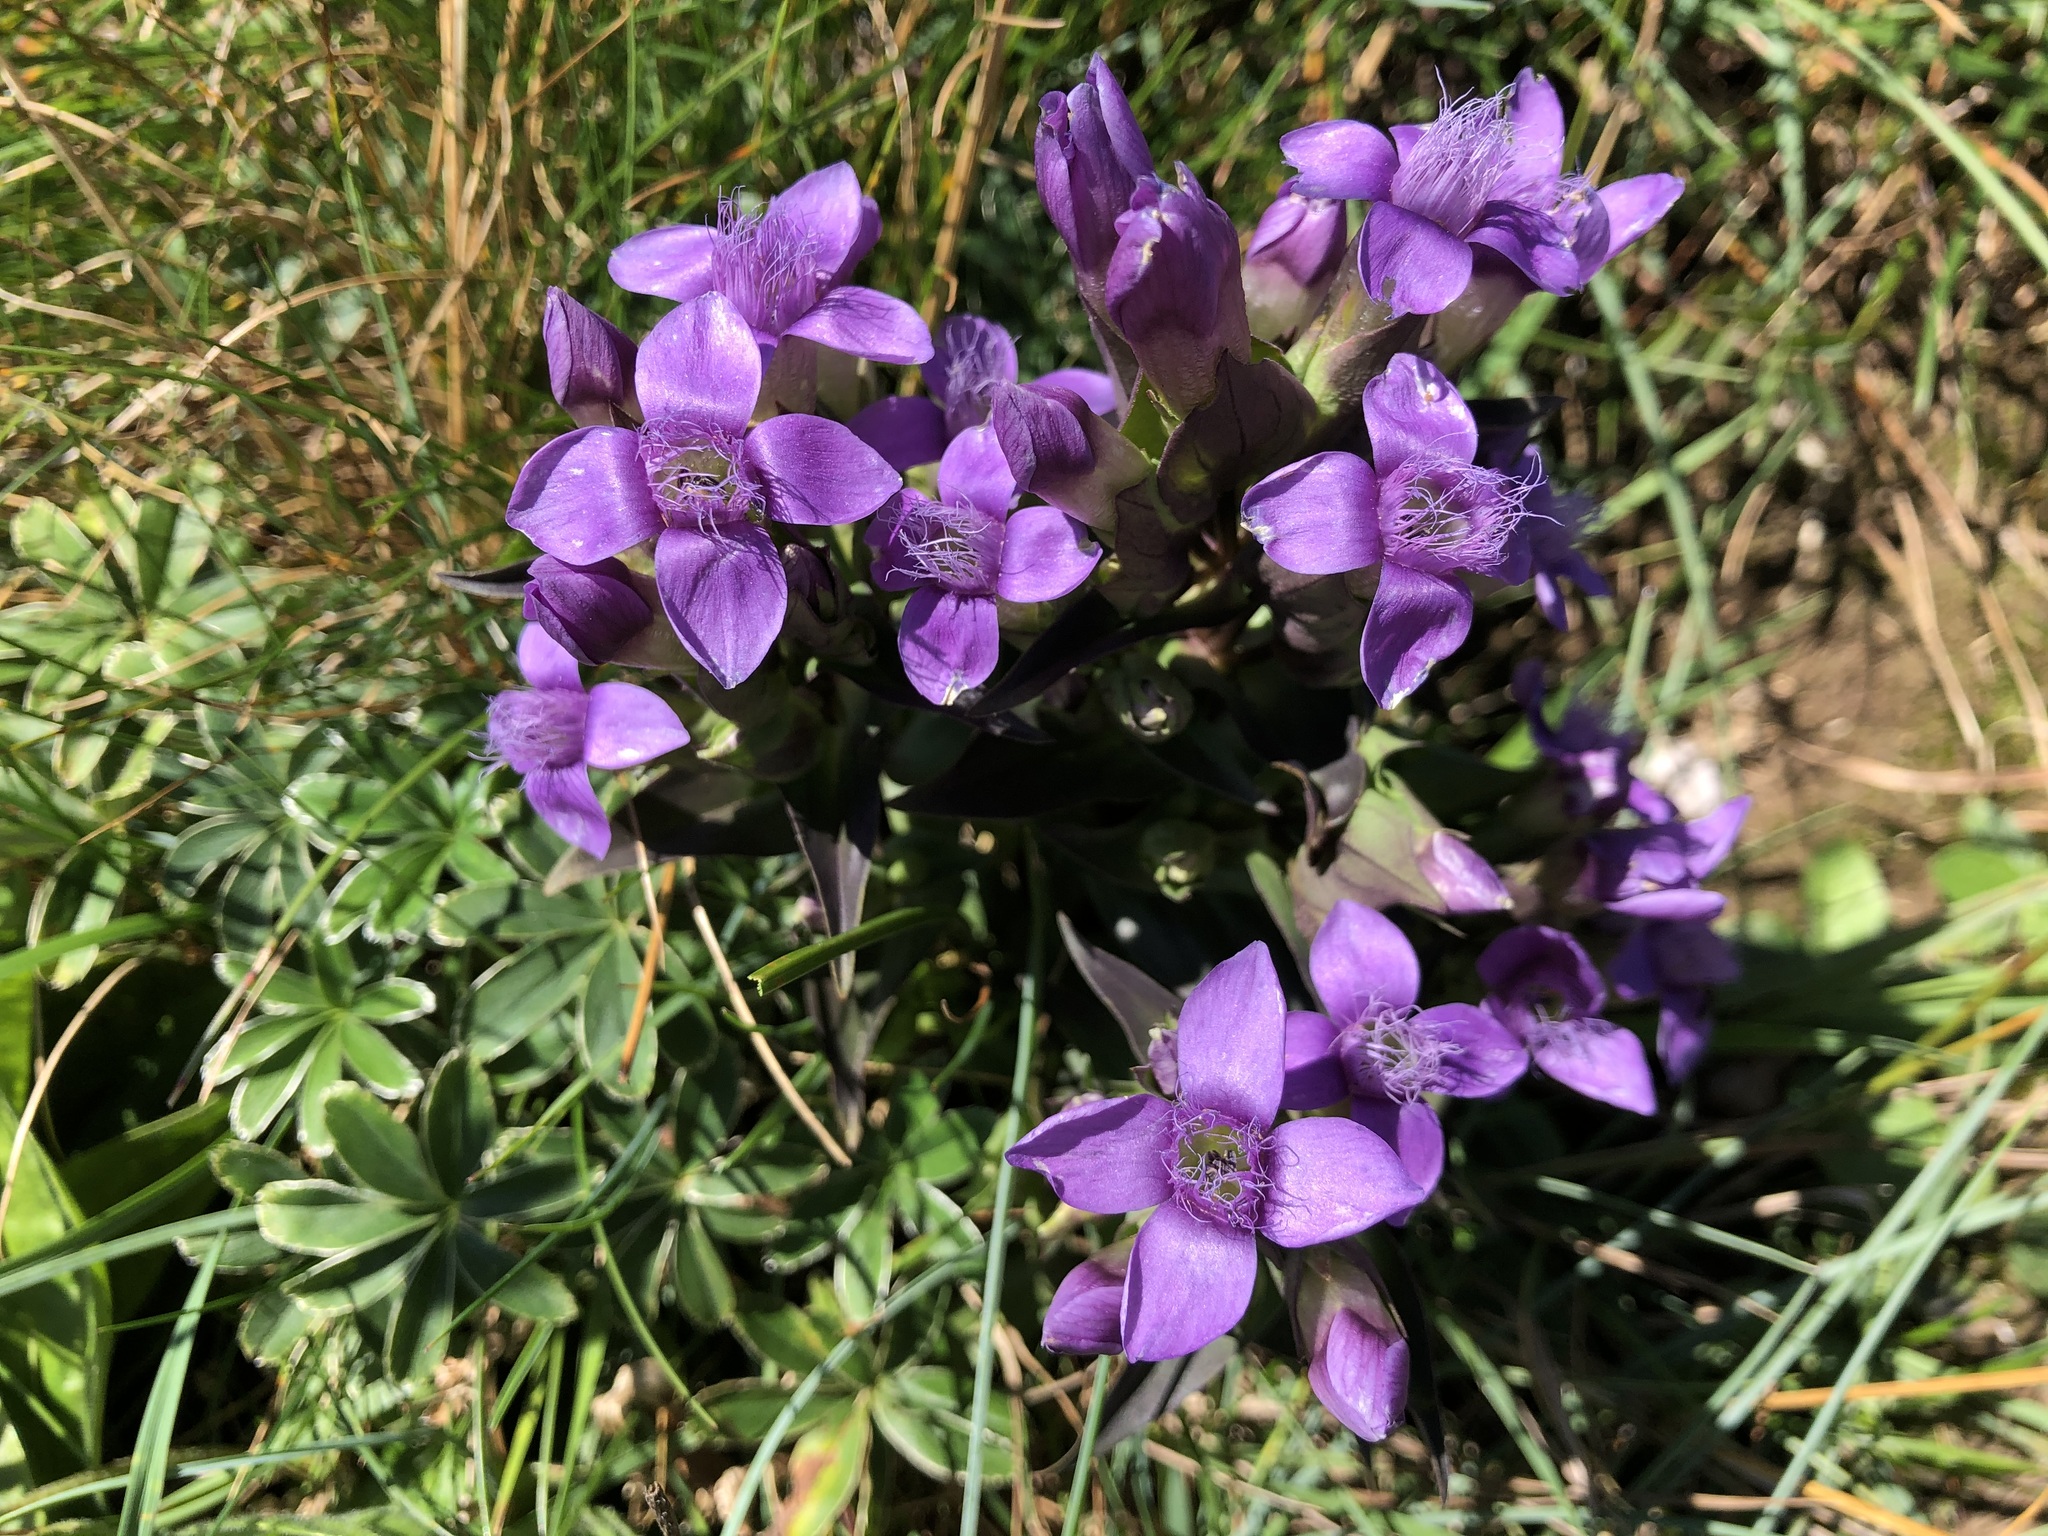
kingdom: Plantae
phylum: Tracheophyta
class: Magnoliopsida
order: Gentianales
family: Gentianaceae
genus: Gentianella
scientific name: Gentianella campestris
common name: Field gentian
